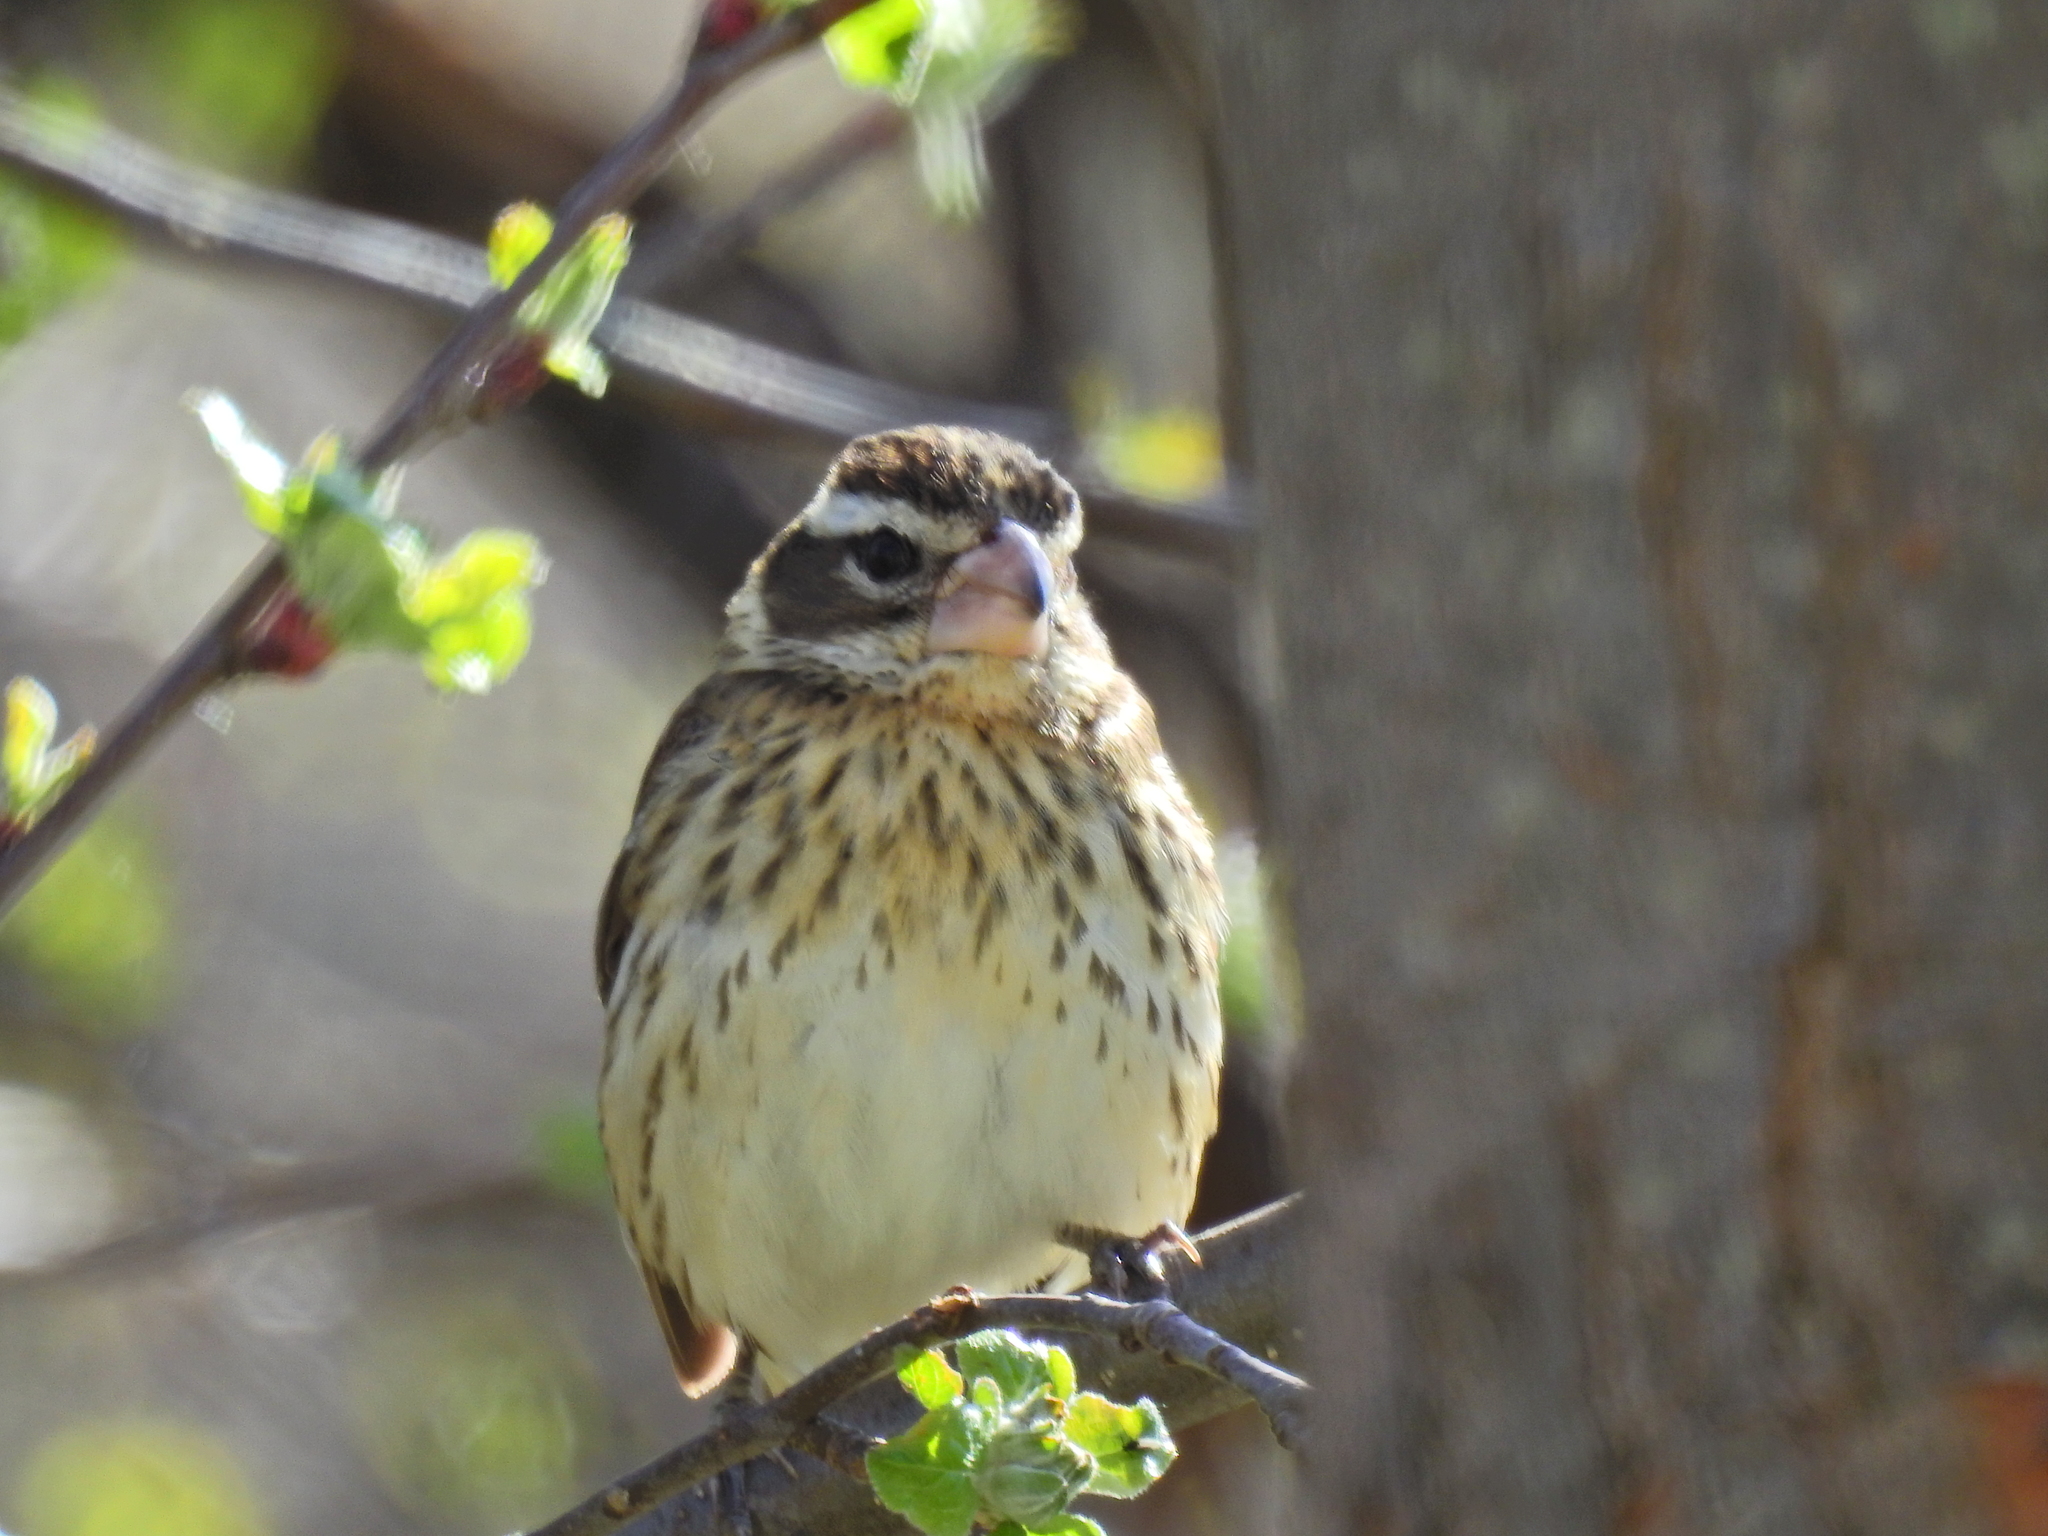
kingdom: Animalia
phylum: Chordata
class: Aves
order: Passeriformes
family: Cardinalidae
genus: Pheucticus
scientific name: Pheucticus ludovicianus
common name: Rose-breasted grosbeak
